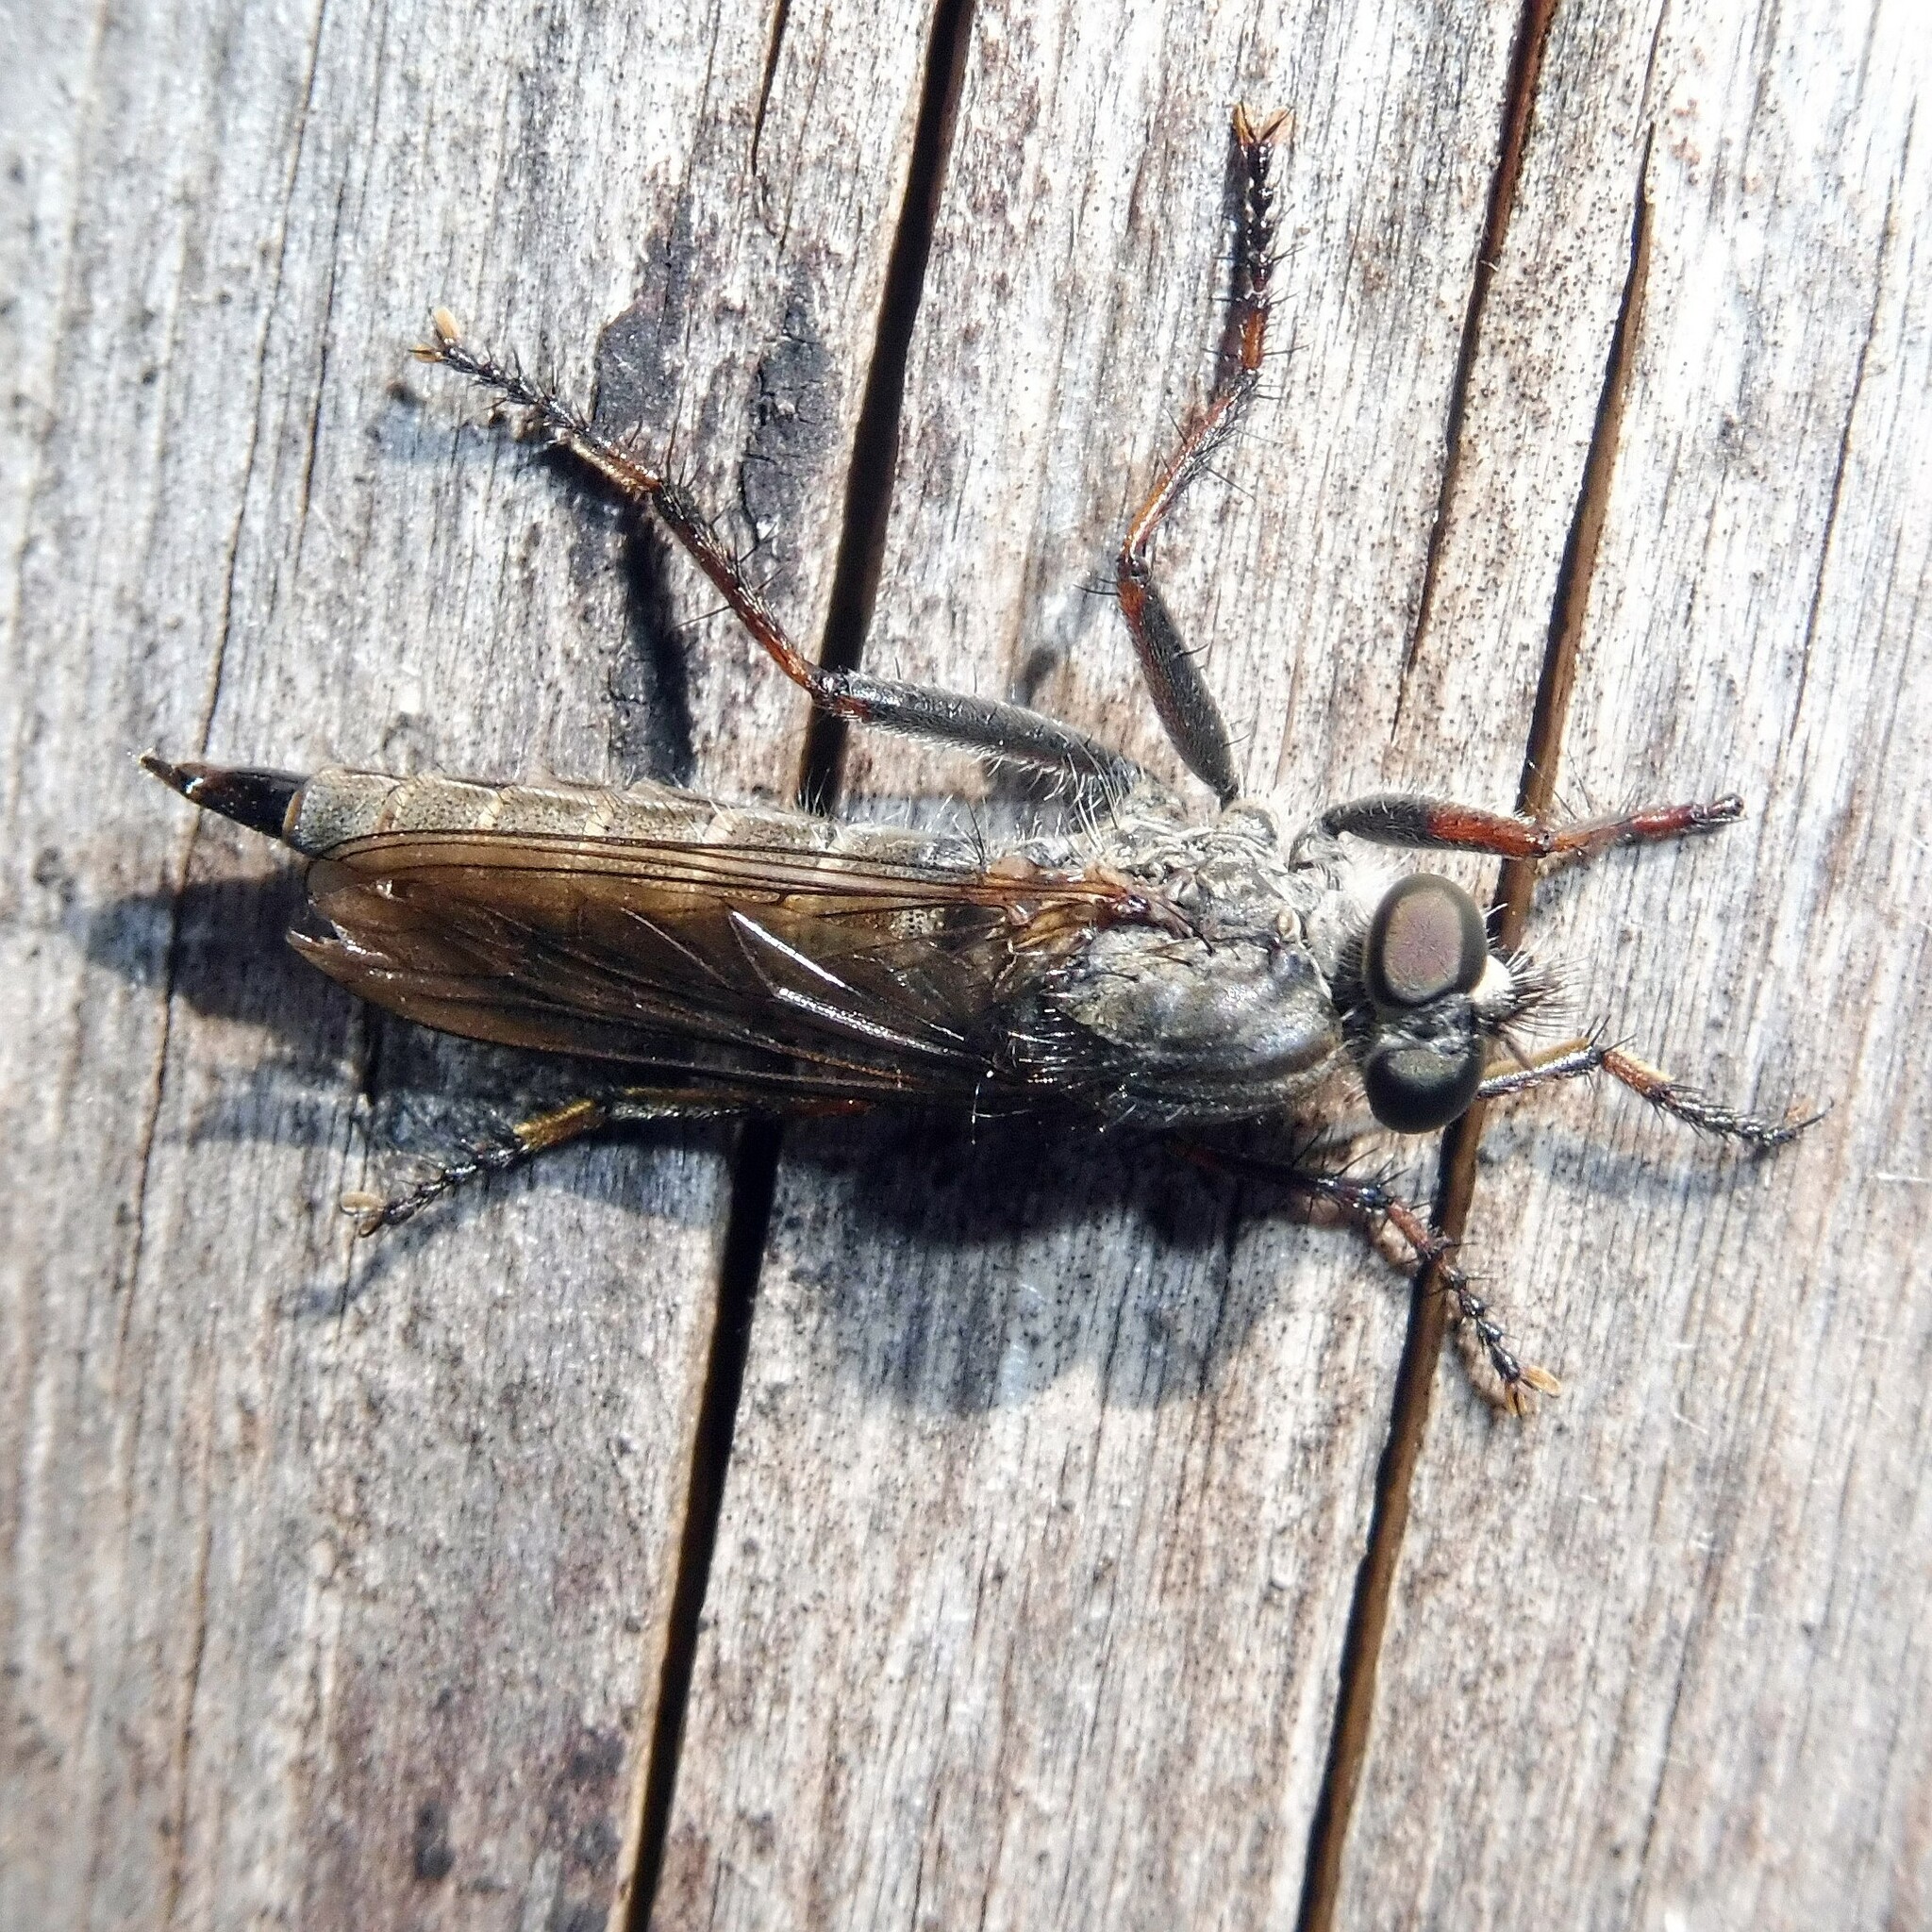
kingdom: Animalia
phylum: Arthropoda
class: Insecta
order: Diptera
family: Asilidae
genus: Machimus
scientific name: Machimus atricapillus
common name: Kite-tailed robberfly
